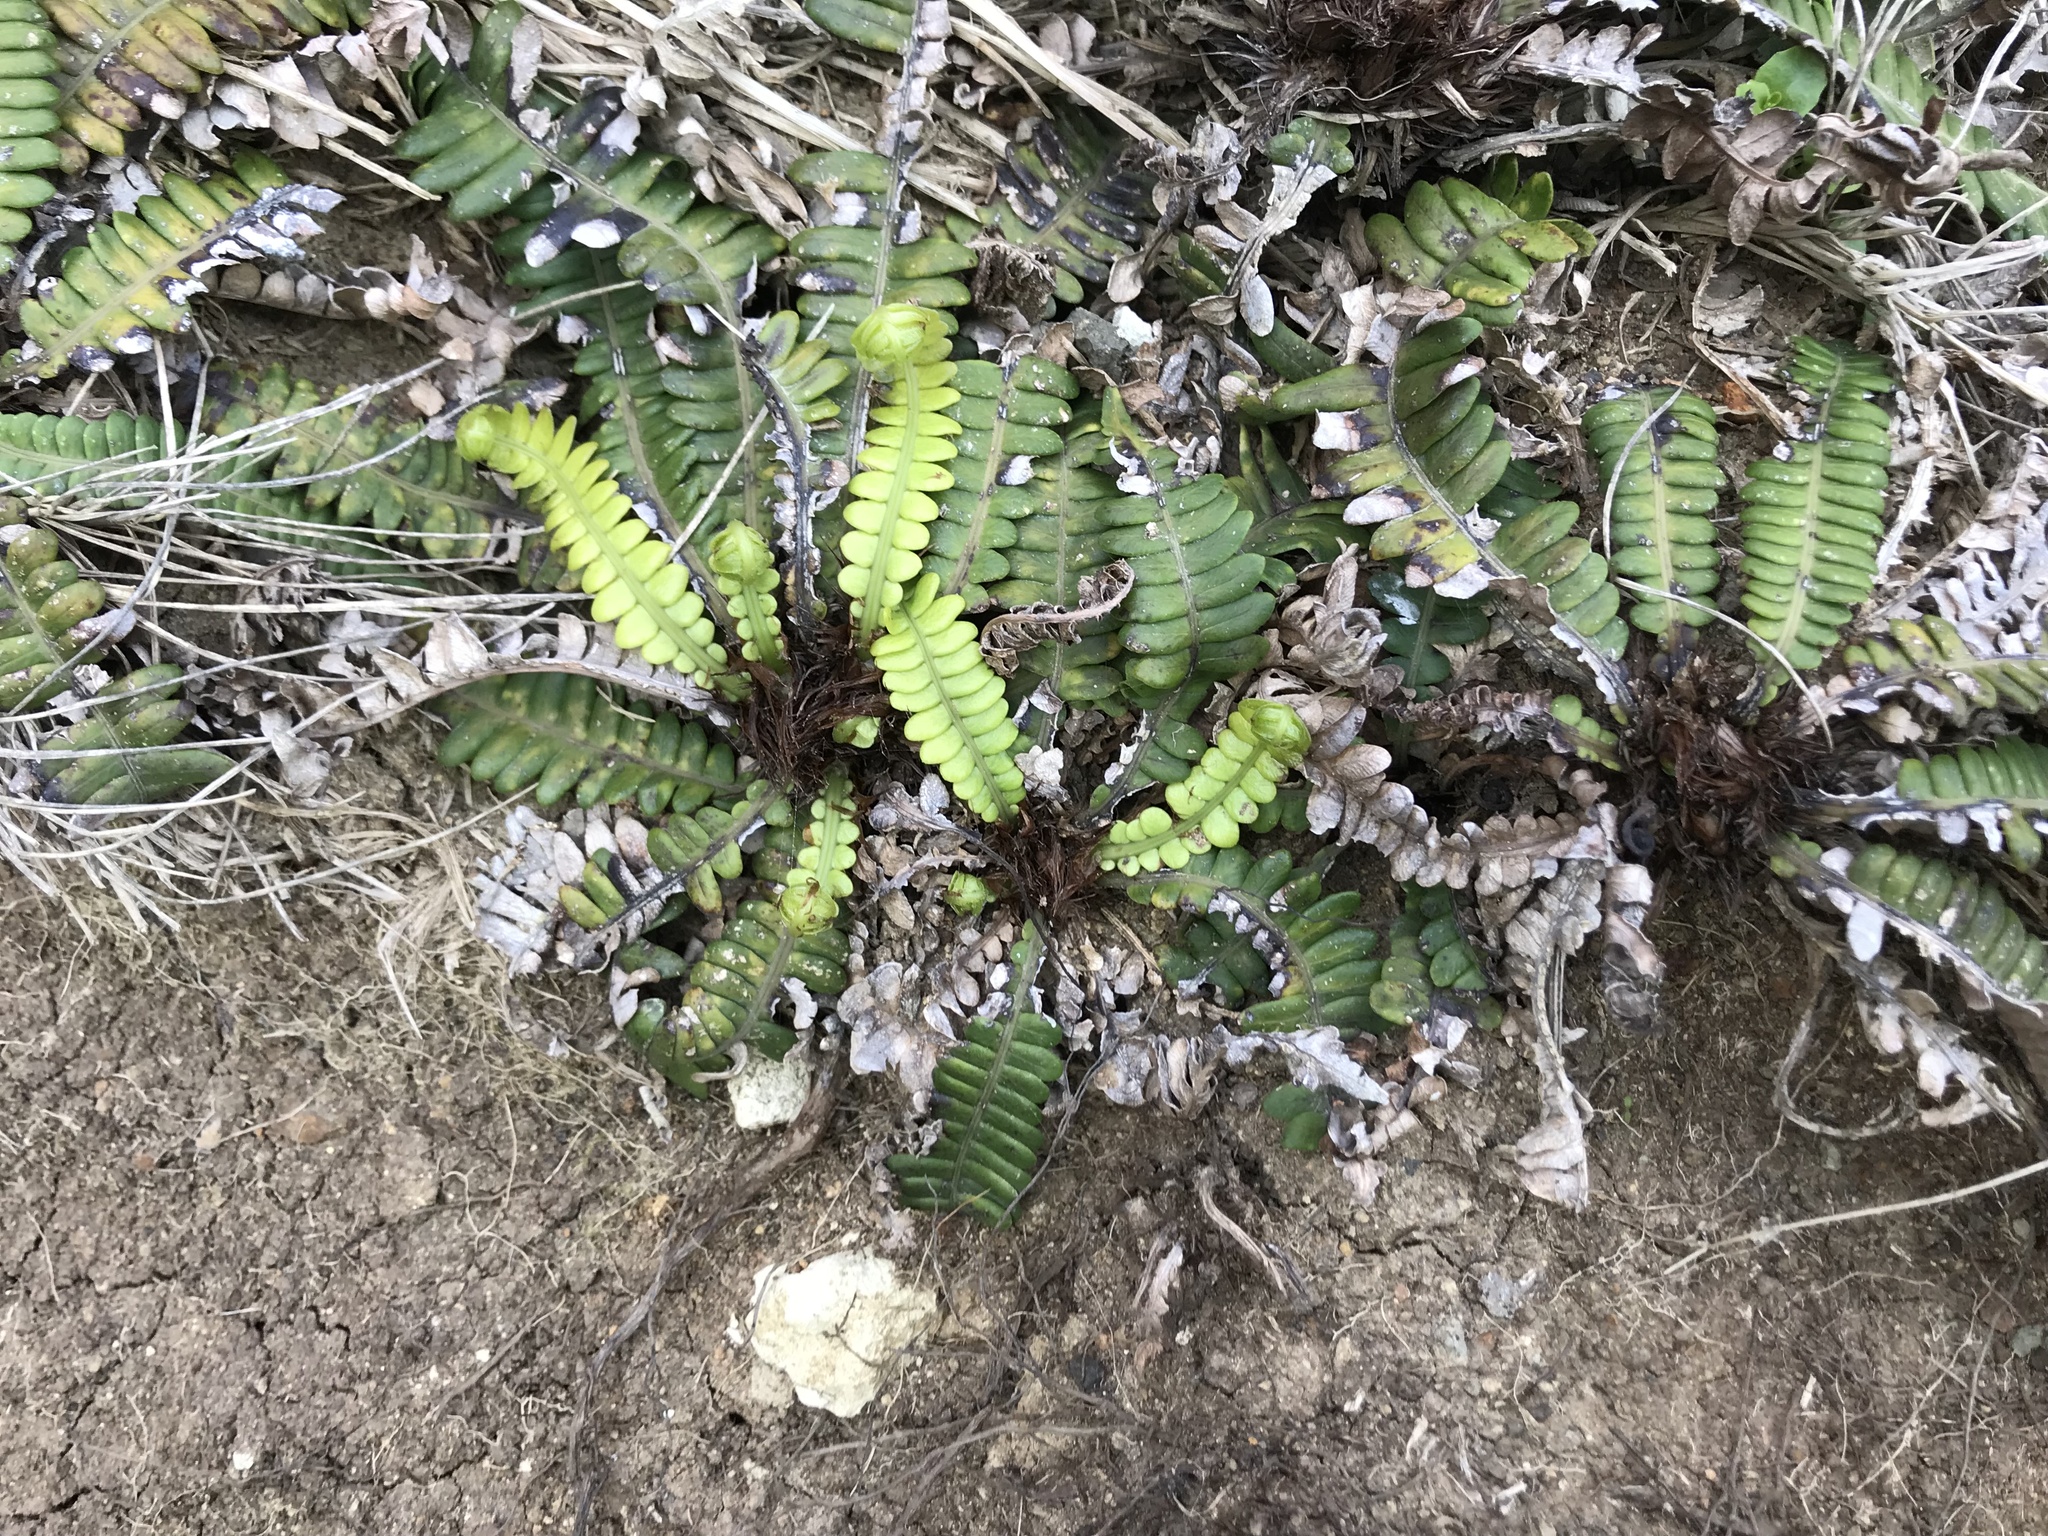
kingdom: Plantae
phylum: Tracheophyta
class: Polypodiopsida
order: Polypodiales
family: Blechnaceae
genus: Austroblechnum
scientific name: Austroblechnum durum
